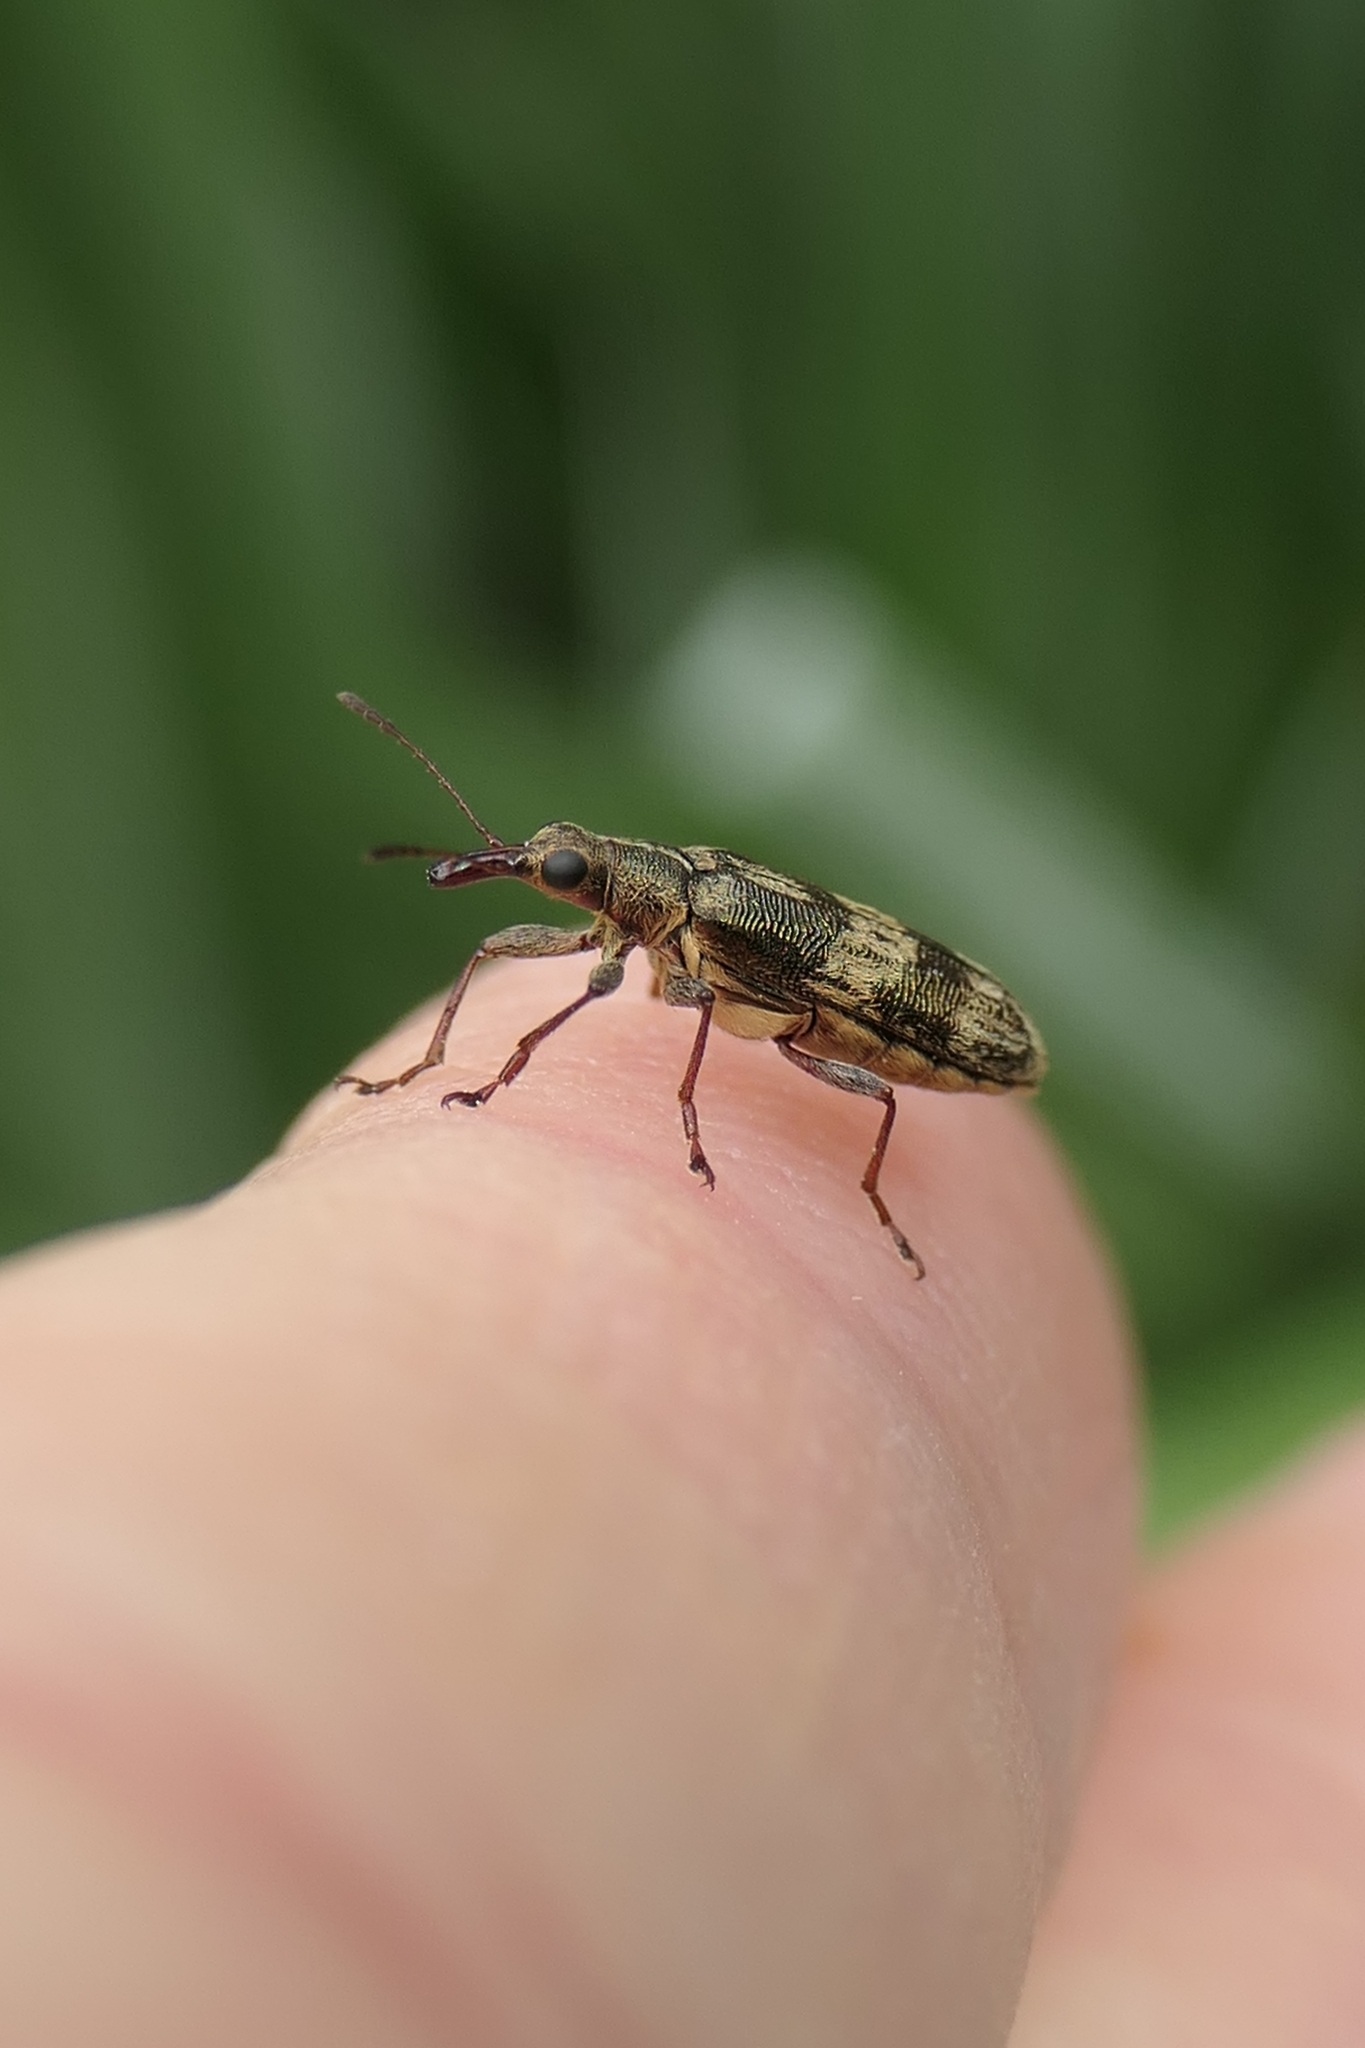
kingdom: Animalia
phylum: Arthropoda
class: Insecta
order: Coleoptera
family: Belidae
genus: Rhicnobelus
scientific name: Rhicnobelus
